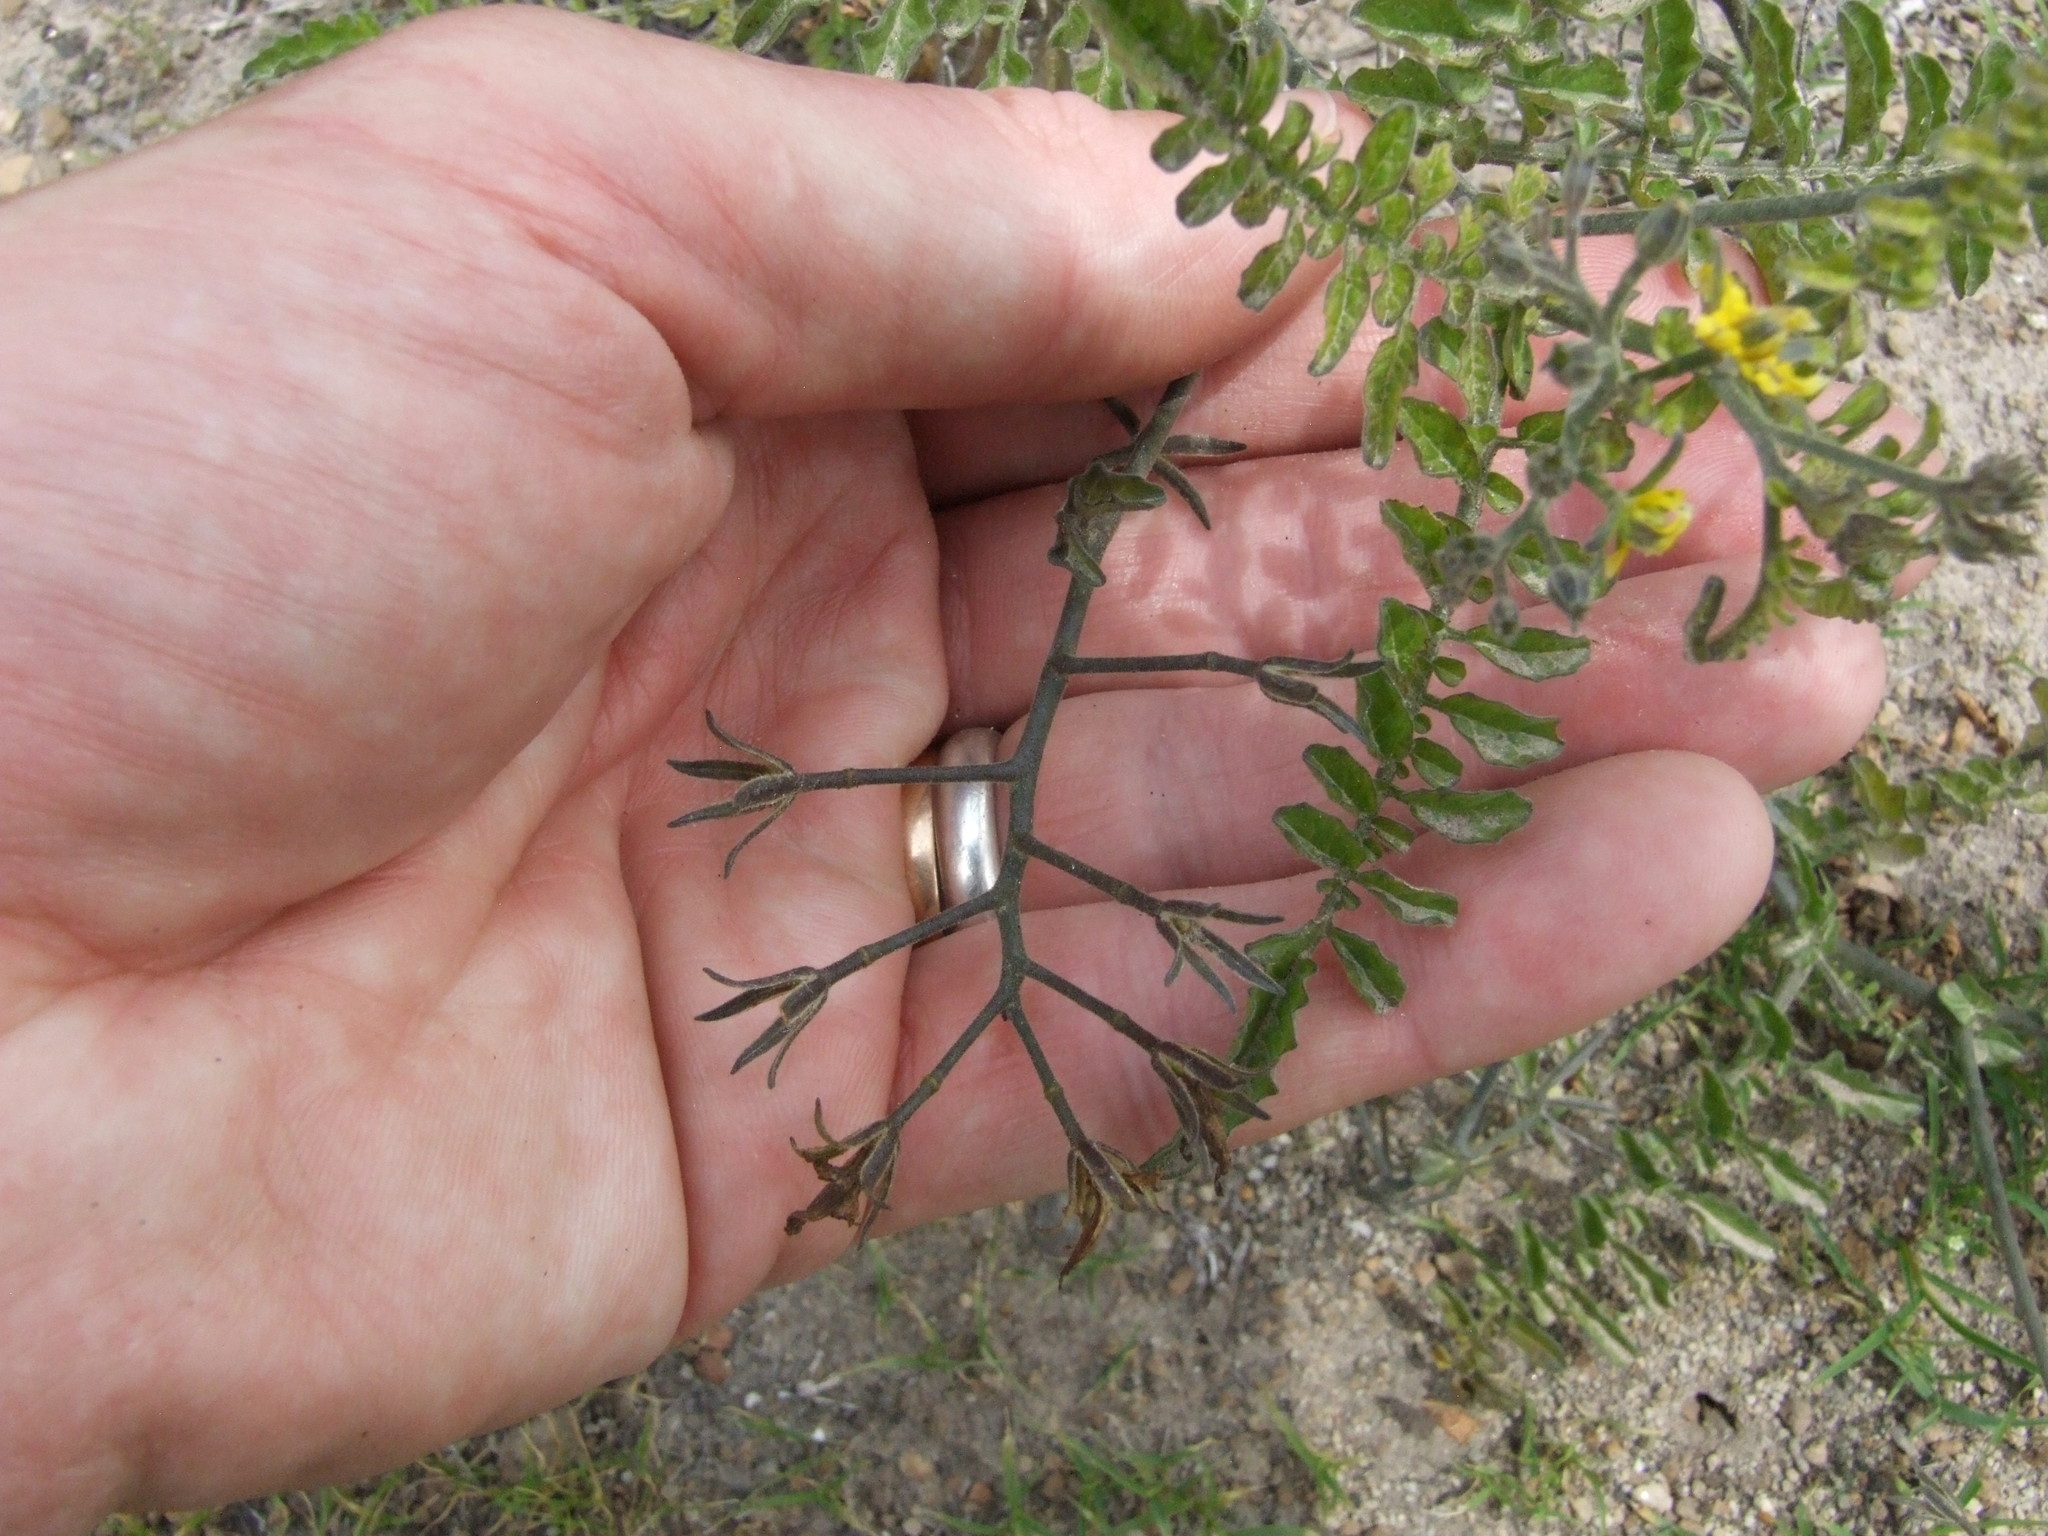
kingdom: Plantae
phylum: Tracheophyta
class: Magnoliopsida
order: Solanales
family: Solanaceae
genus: Solanum
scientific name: Solanum corneliomulleri
